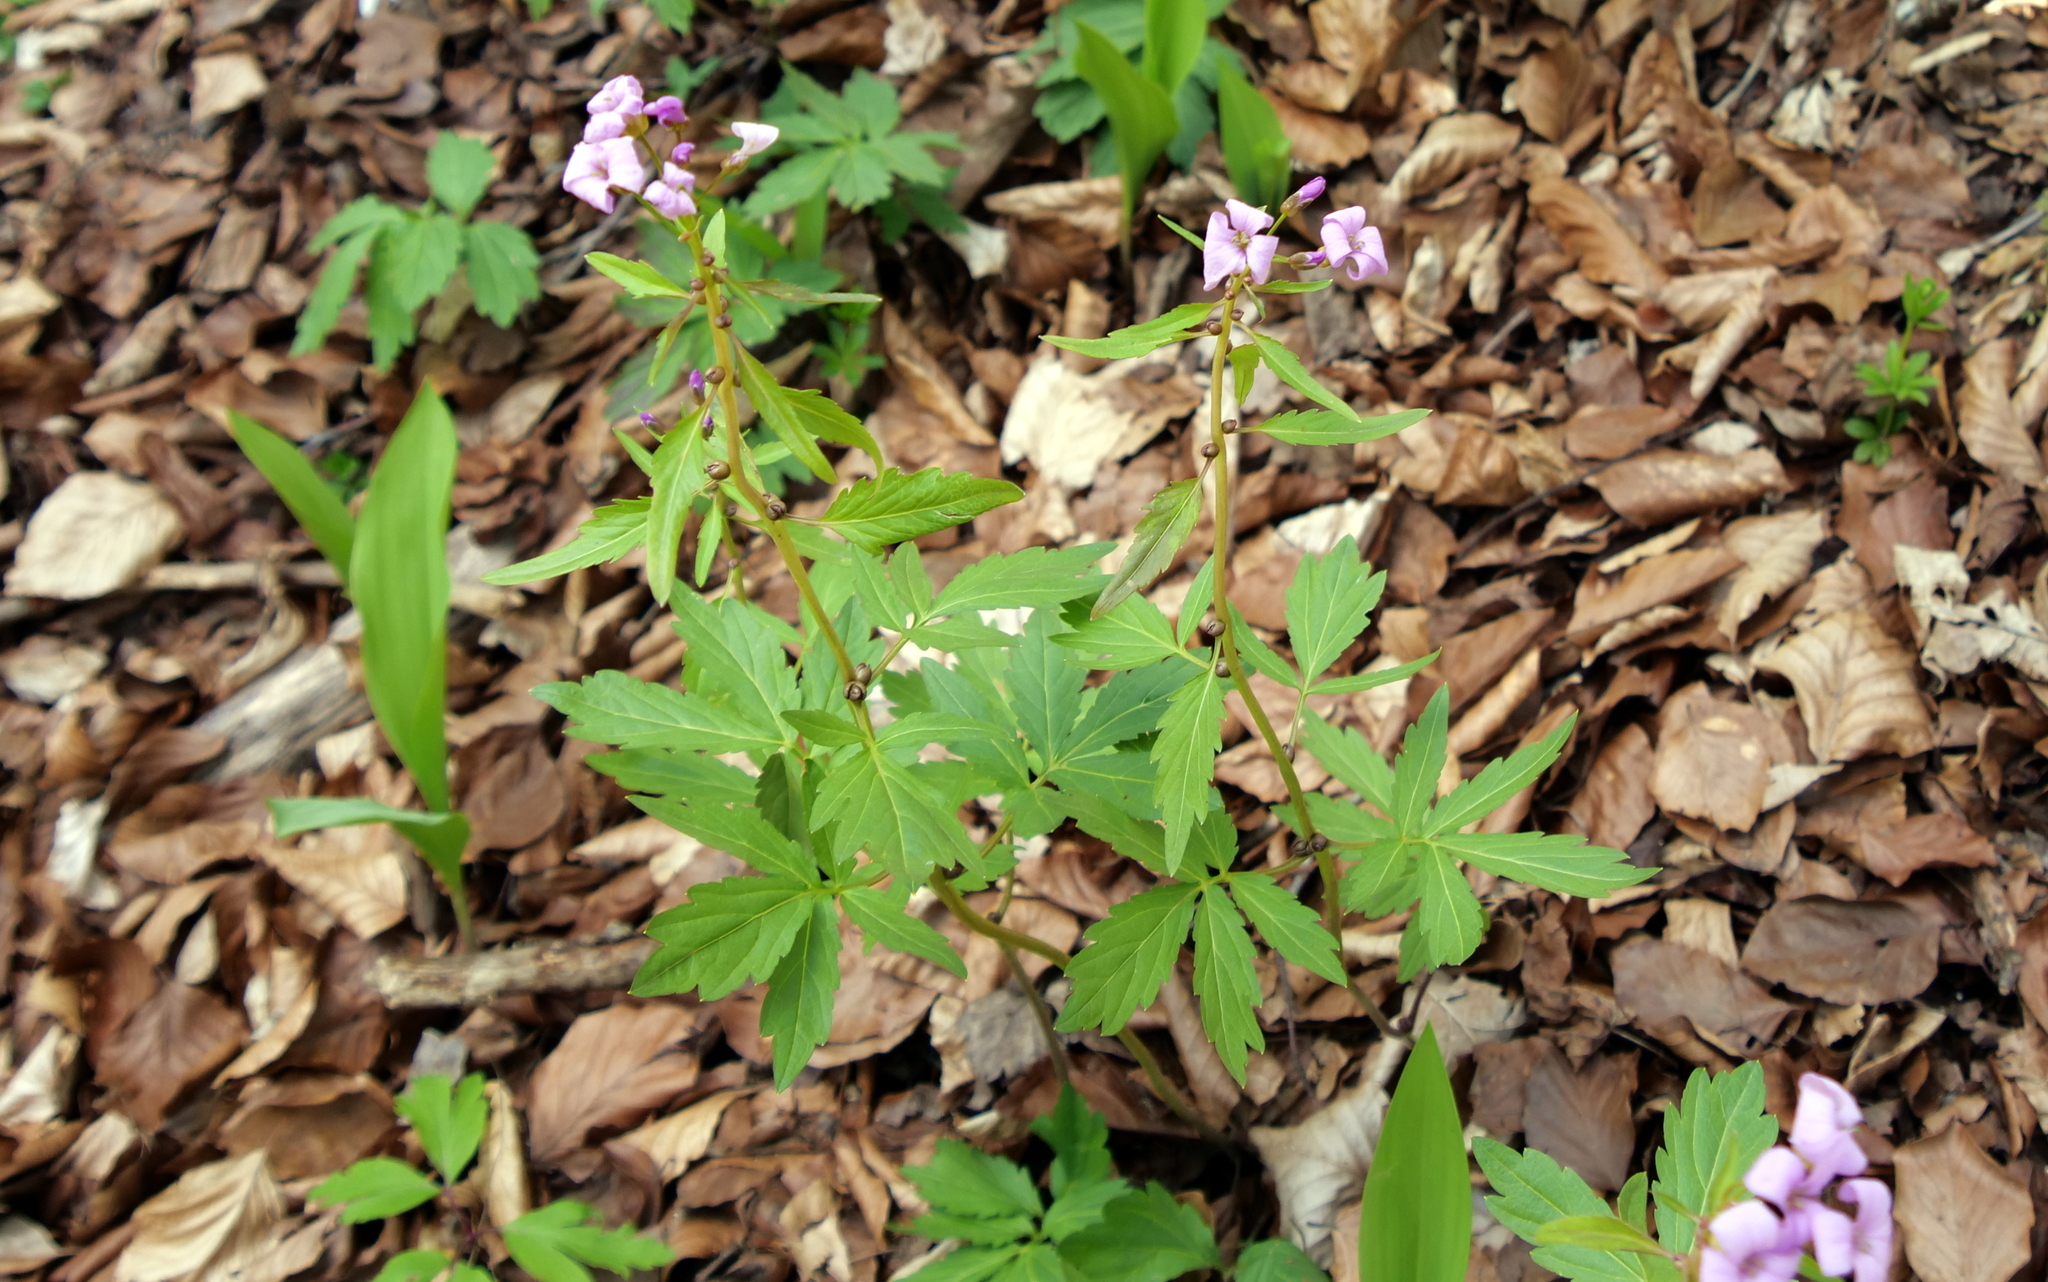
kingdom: Plantae
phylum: Tracheophyta
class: Magnoliopsida
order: Brassicales
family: Brassicaceae
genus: Cardamine
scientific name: Cardamine bulbifera
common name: Coralroot bittercress
